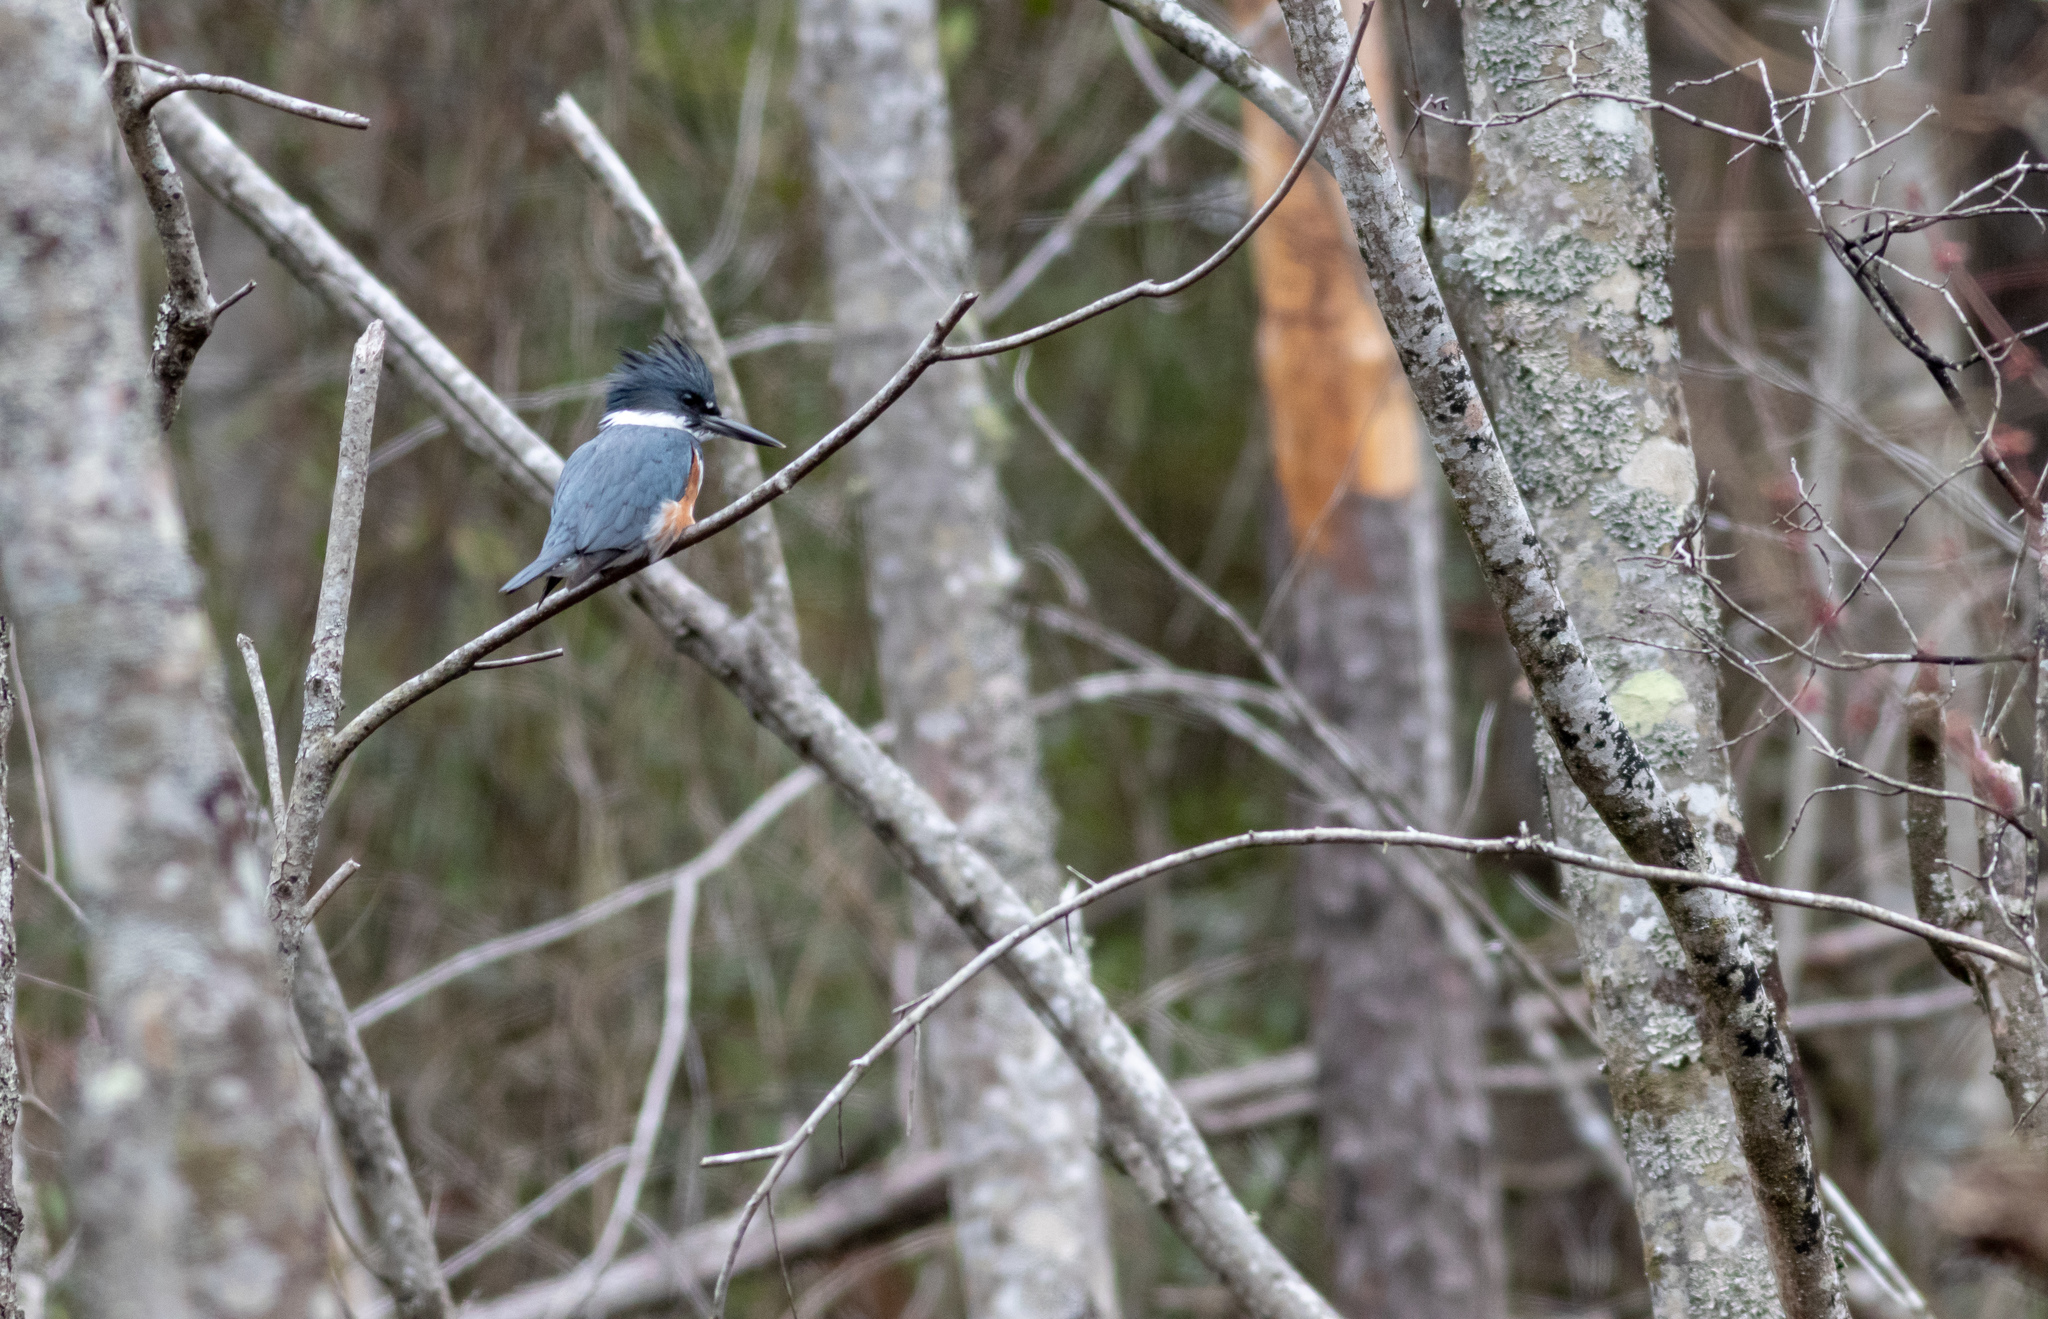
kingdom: Animalia
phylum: Chordata
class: Aves
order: Coraciiformes
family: Alcedinidae
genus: Megaceryle
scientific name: Megaceryle alcyon
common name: Belted kingfisher
